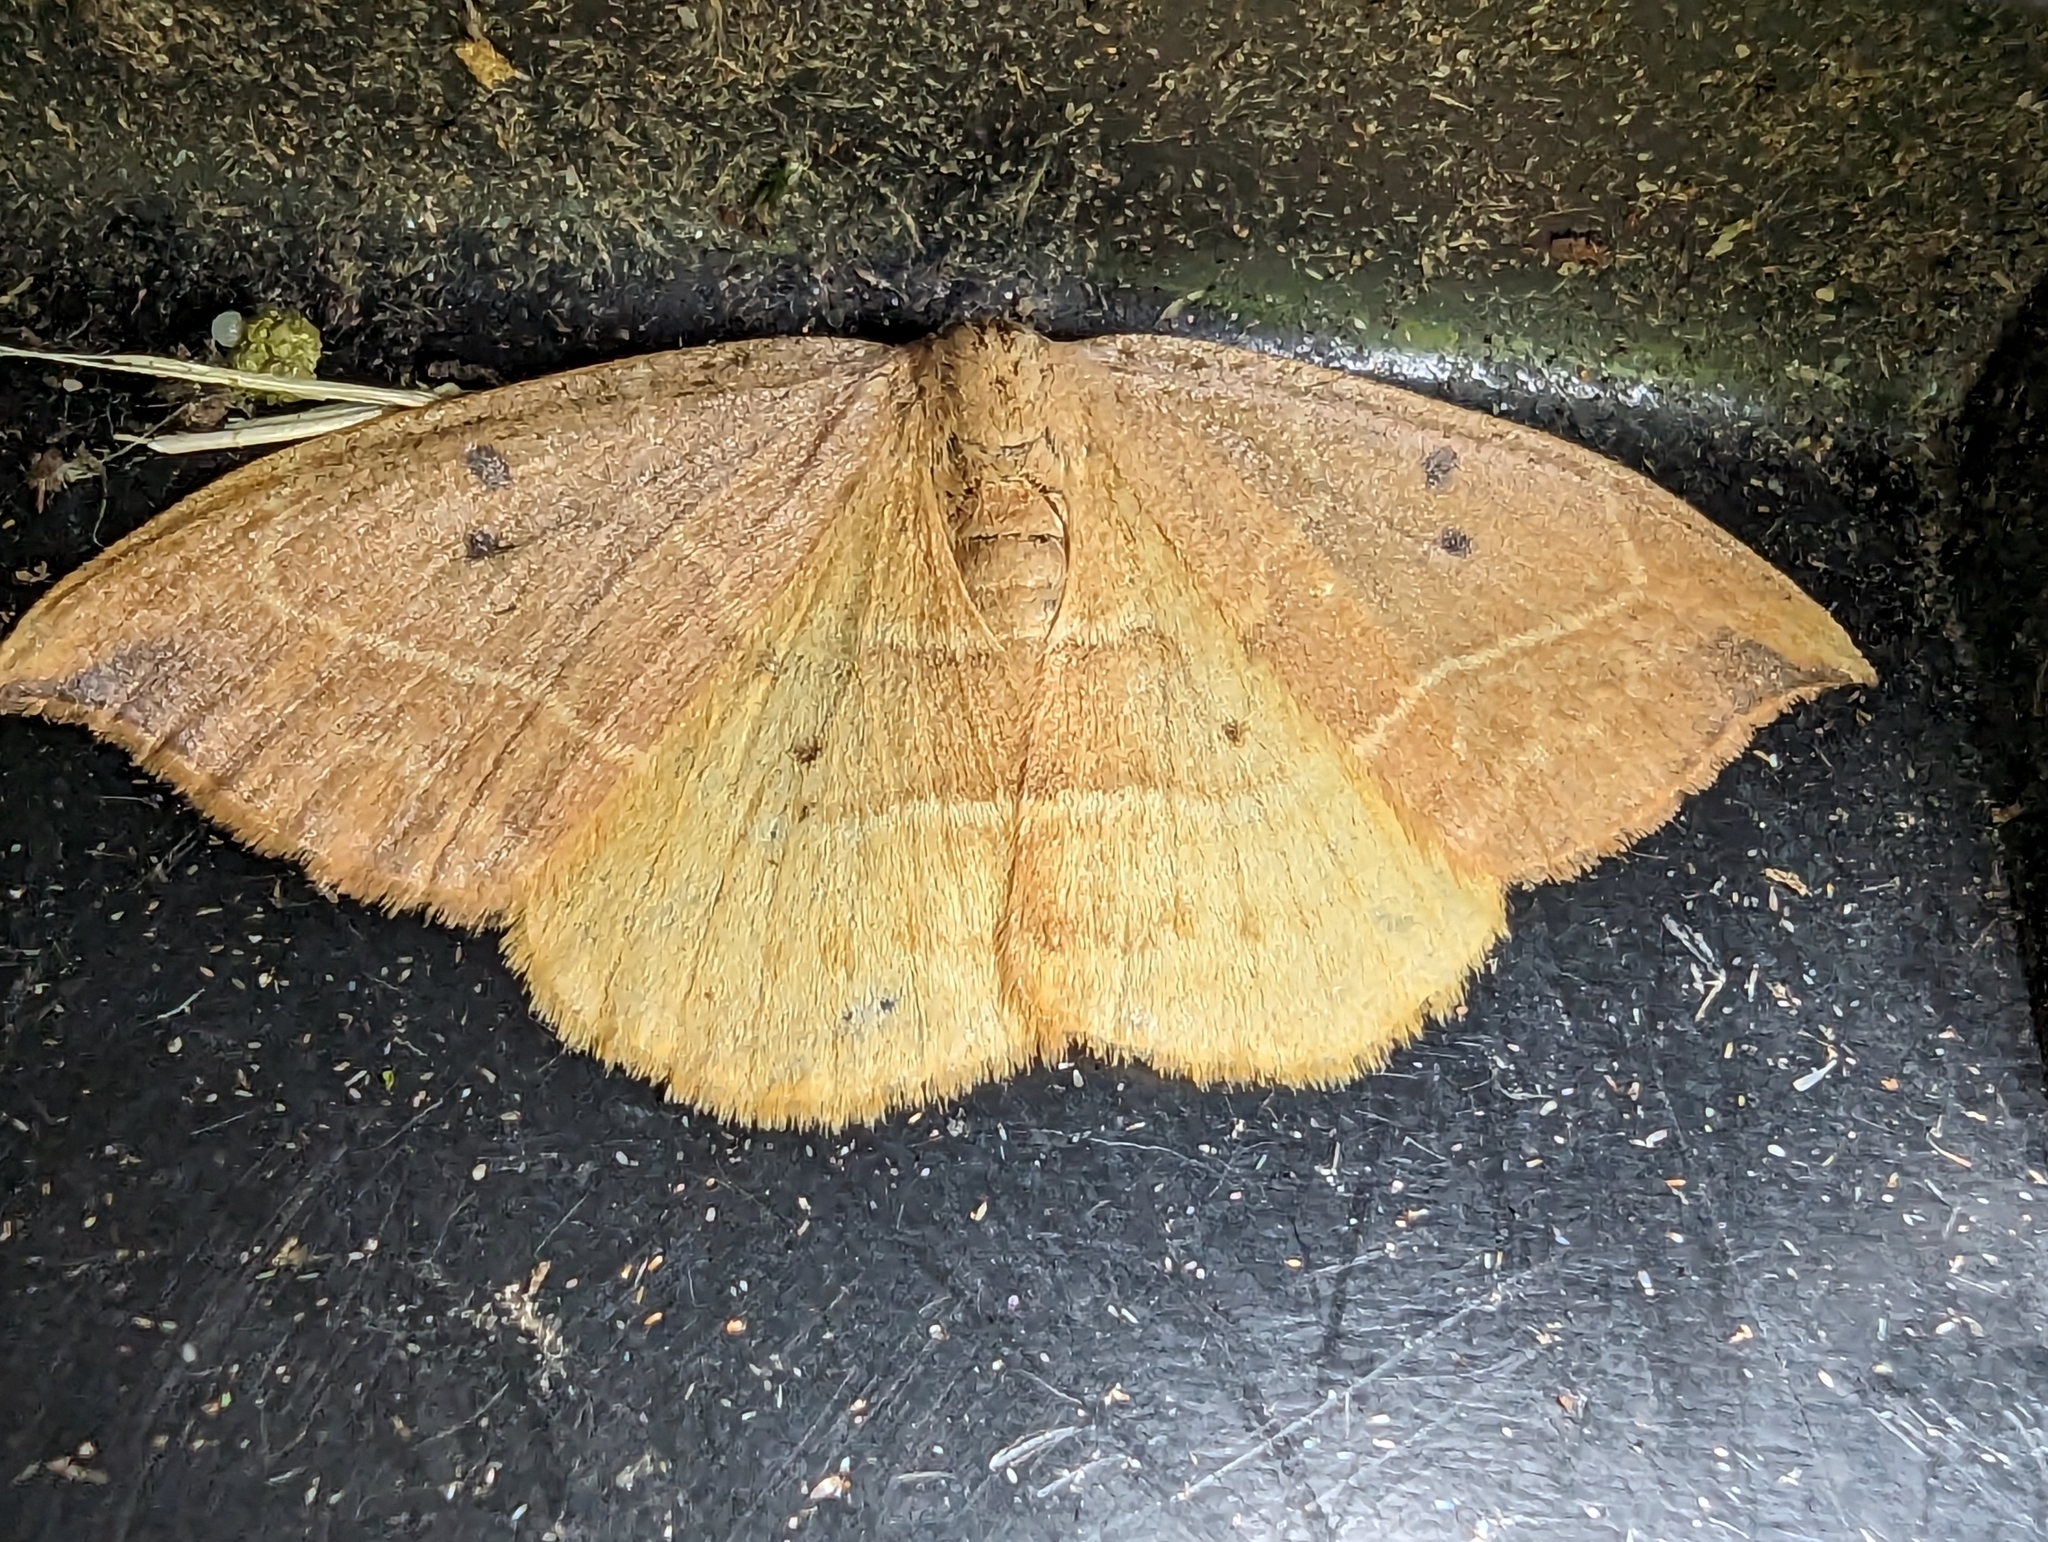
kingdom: Animalia
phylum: Arthropoda
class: Insecta
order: Lepidoptera
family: Drepanidae
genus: Watsonalla
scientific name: Watsonalla binaria
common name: Oak hook-tip
